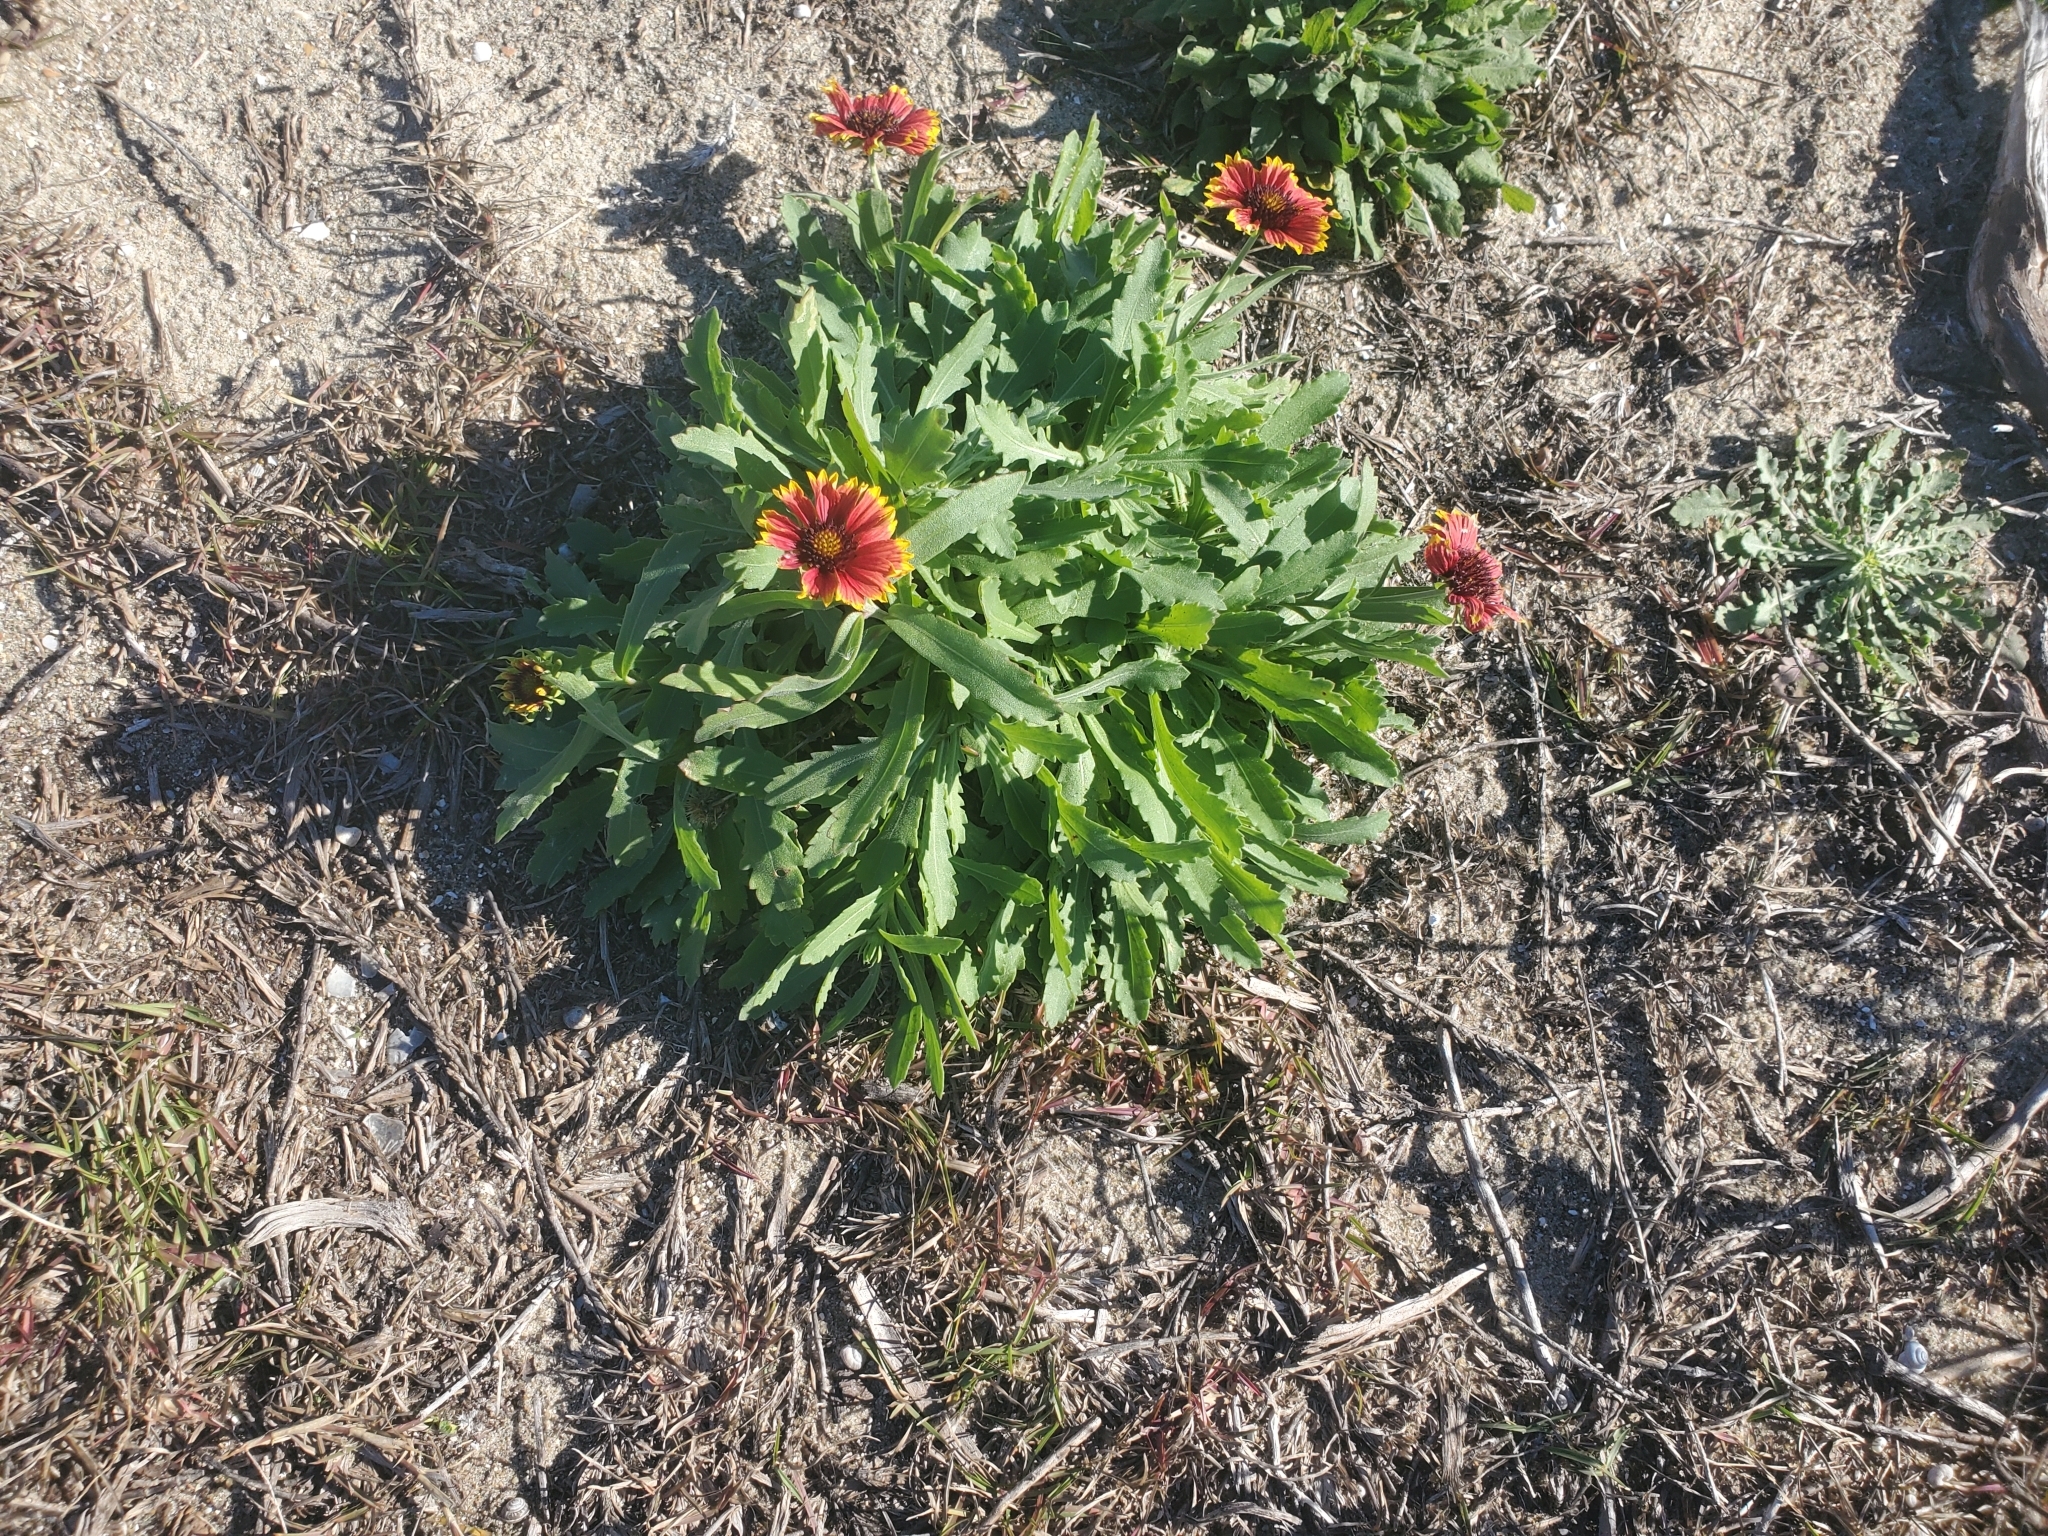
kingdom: Plantae
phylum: Tracheophyta
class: Magnoliopsida
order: Asterales
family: Asteraceae
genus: Gaillardia
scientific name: Gaillardia pulchella
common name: Firewheel
